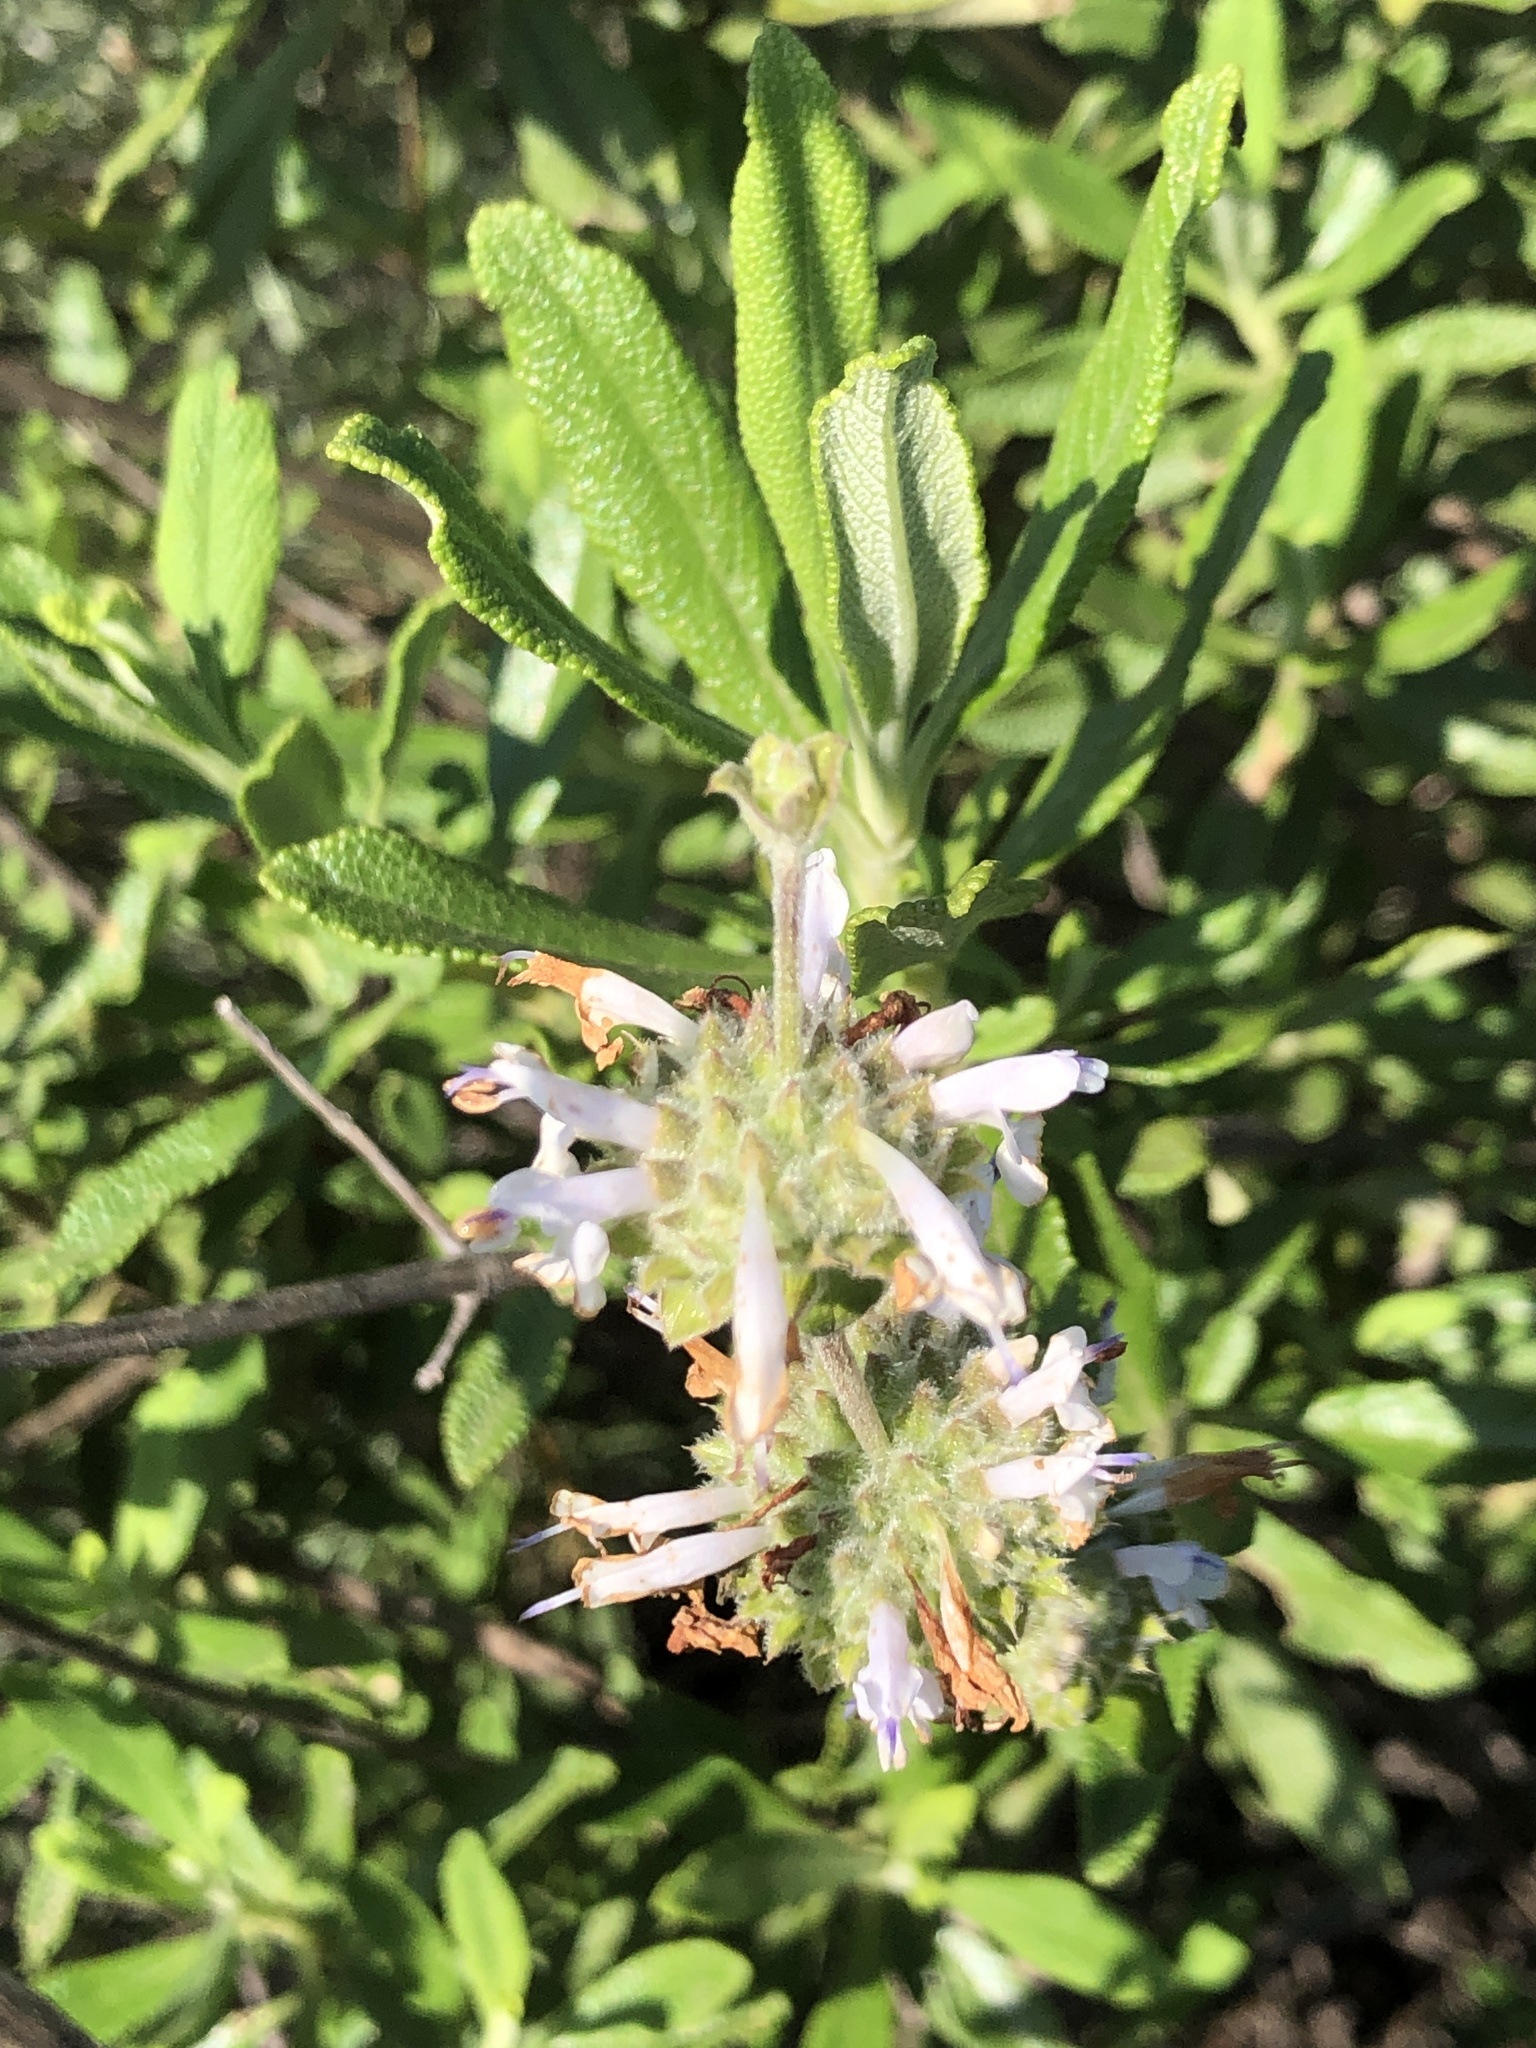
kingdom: Plantae
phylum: Tracheophyta
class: Magnoliopsida
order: Lamiales
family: Lamiaceae
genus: Salvia
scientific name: Salvia mellifera
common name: Black sage
